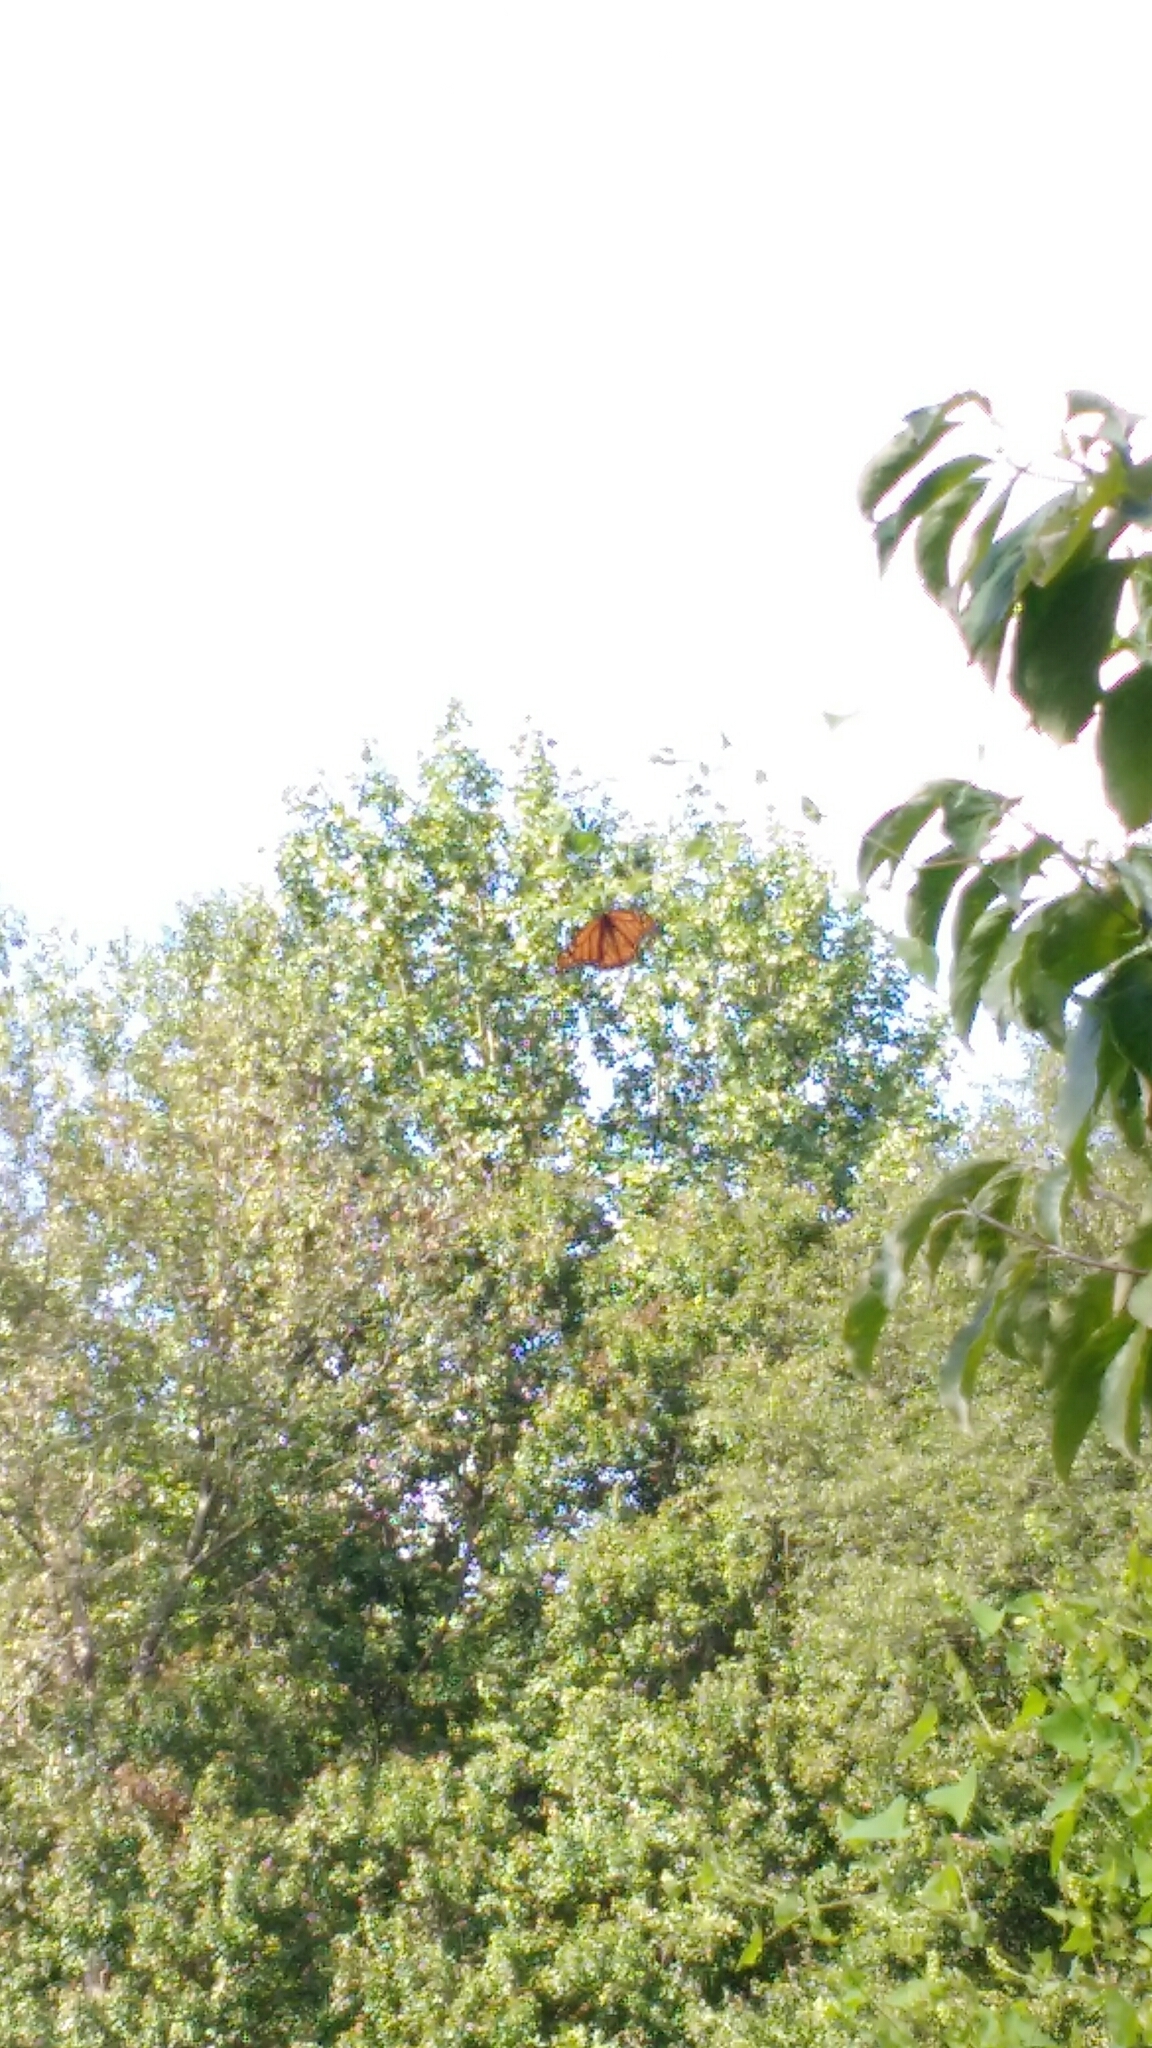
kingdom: Animalia
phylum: Arthropoda
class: Insecta
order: Lepidoptera
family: Nymphalidae
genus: Danaus
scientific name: Danaus plexippus
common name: Monarch
